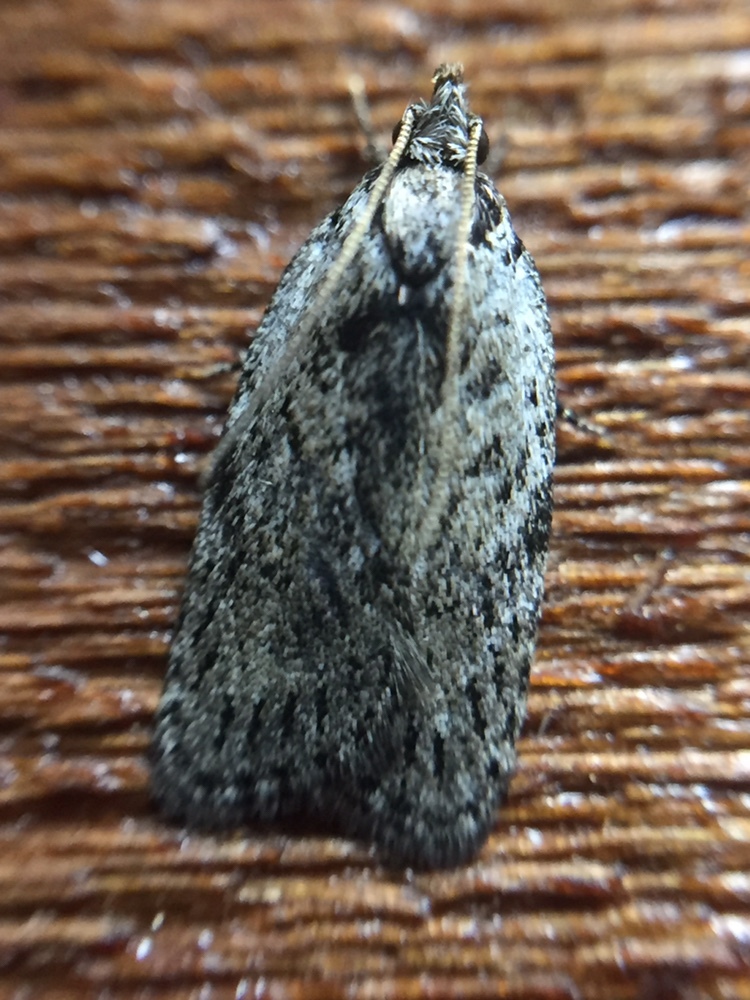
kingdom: Animalia
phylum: Arthropoda
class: Insecta
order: Lepidoptera
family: Depressariidae
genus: Phaeosaces
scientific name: Phaeosaces compsotypa
